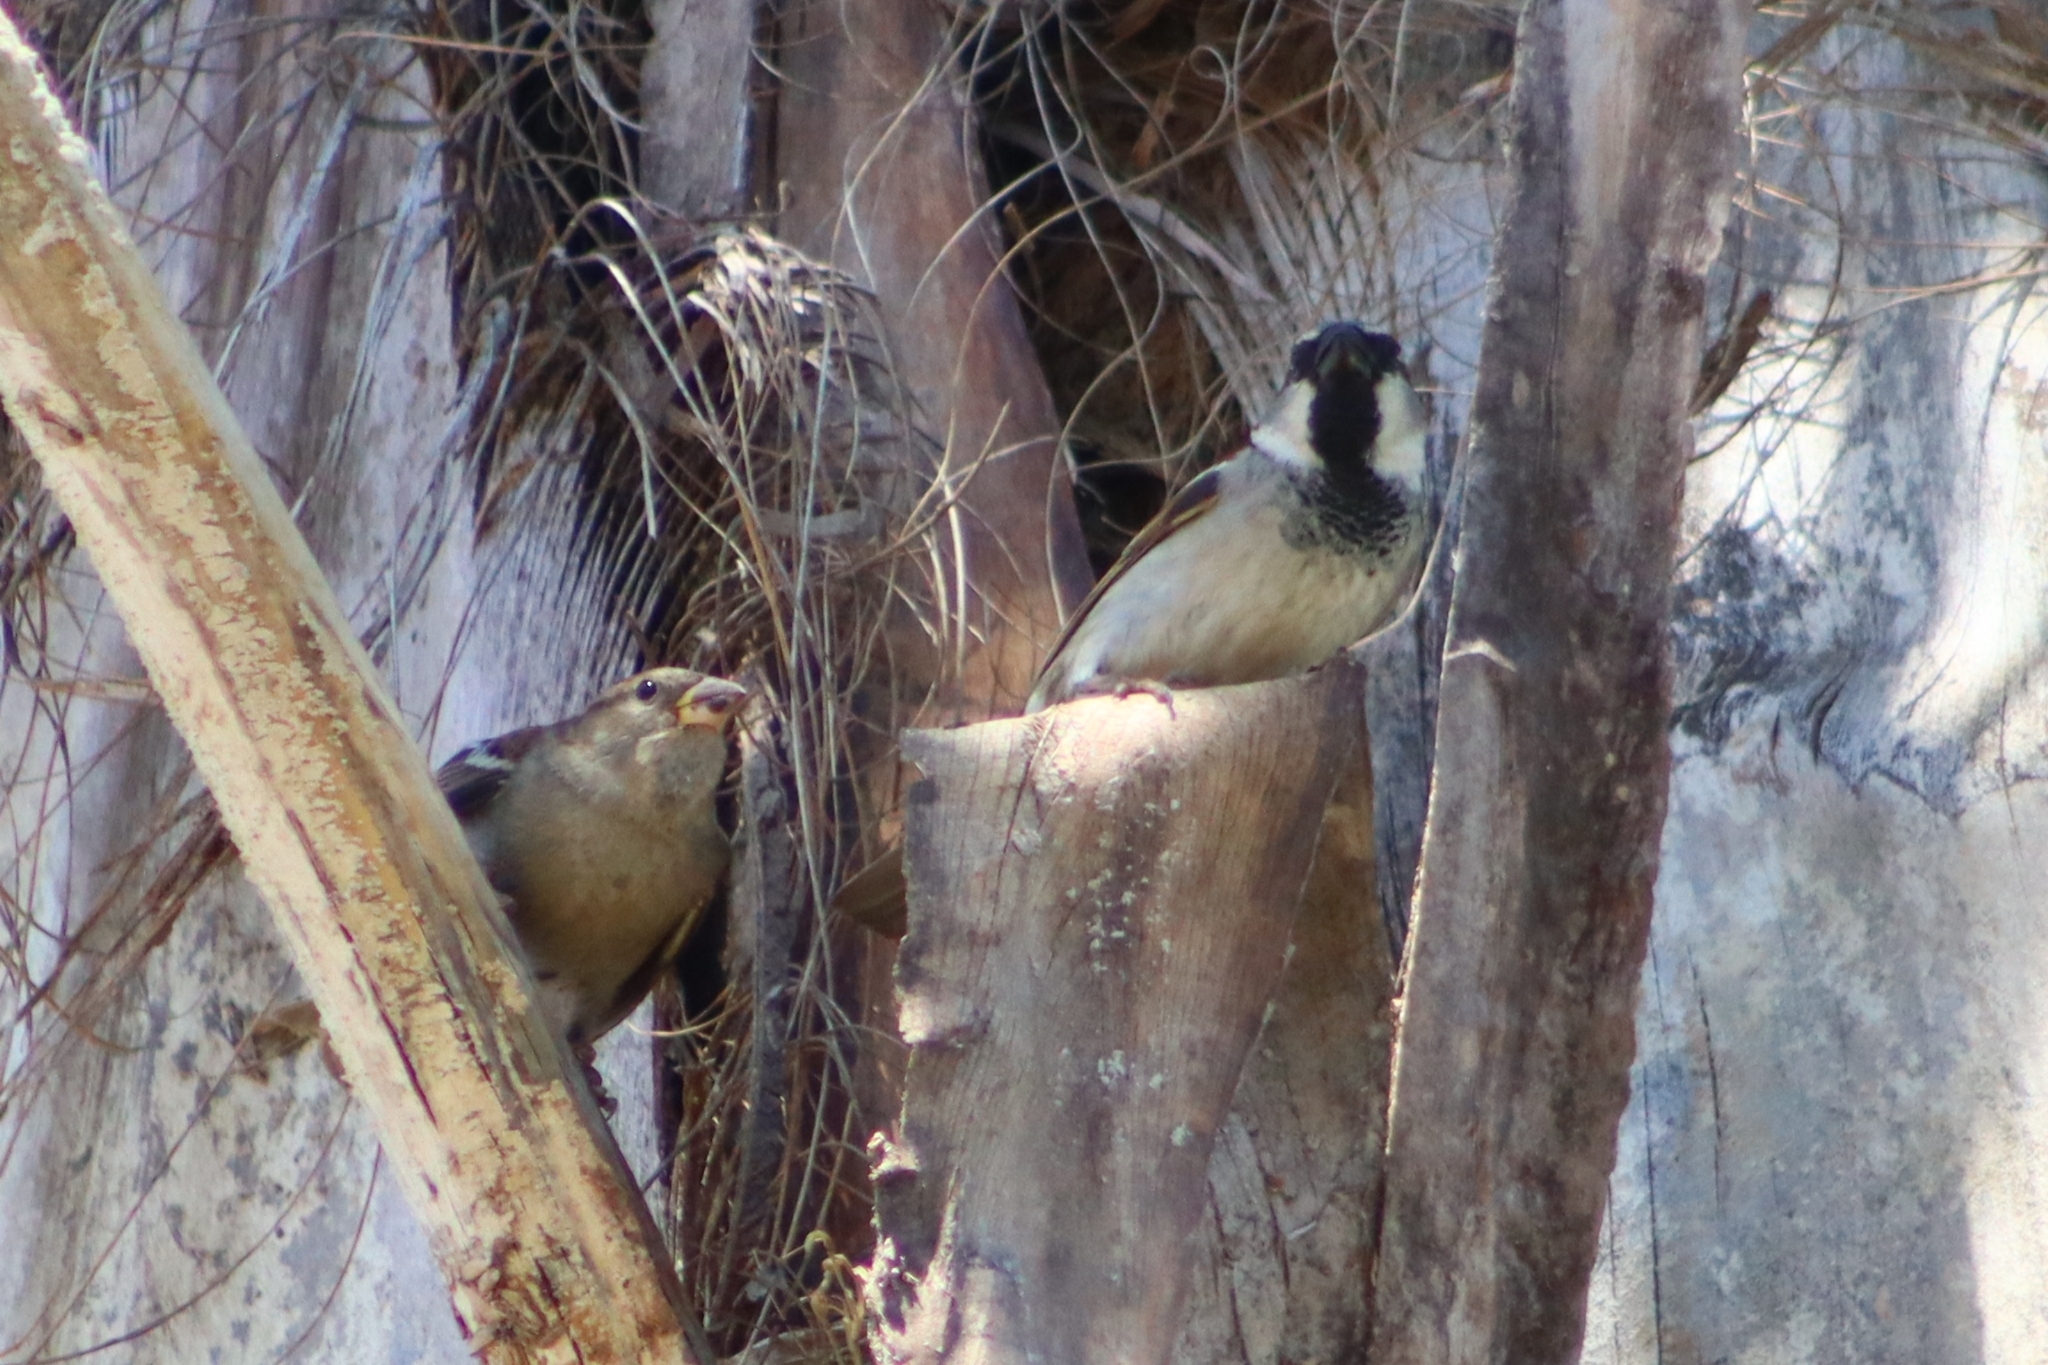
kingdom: Animalia
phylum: Chordata
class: Aves
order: Passeriformes
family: Passeridae
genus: Passer
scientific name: Passer domesticus
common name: House sparrow
